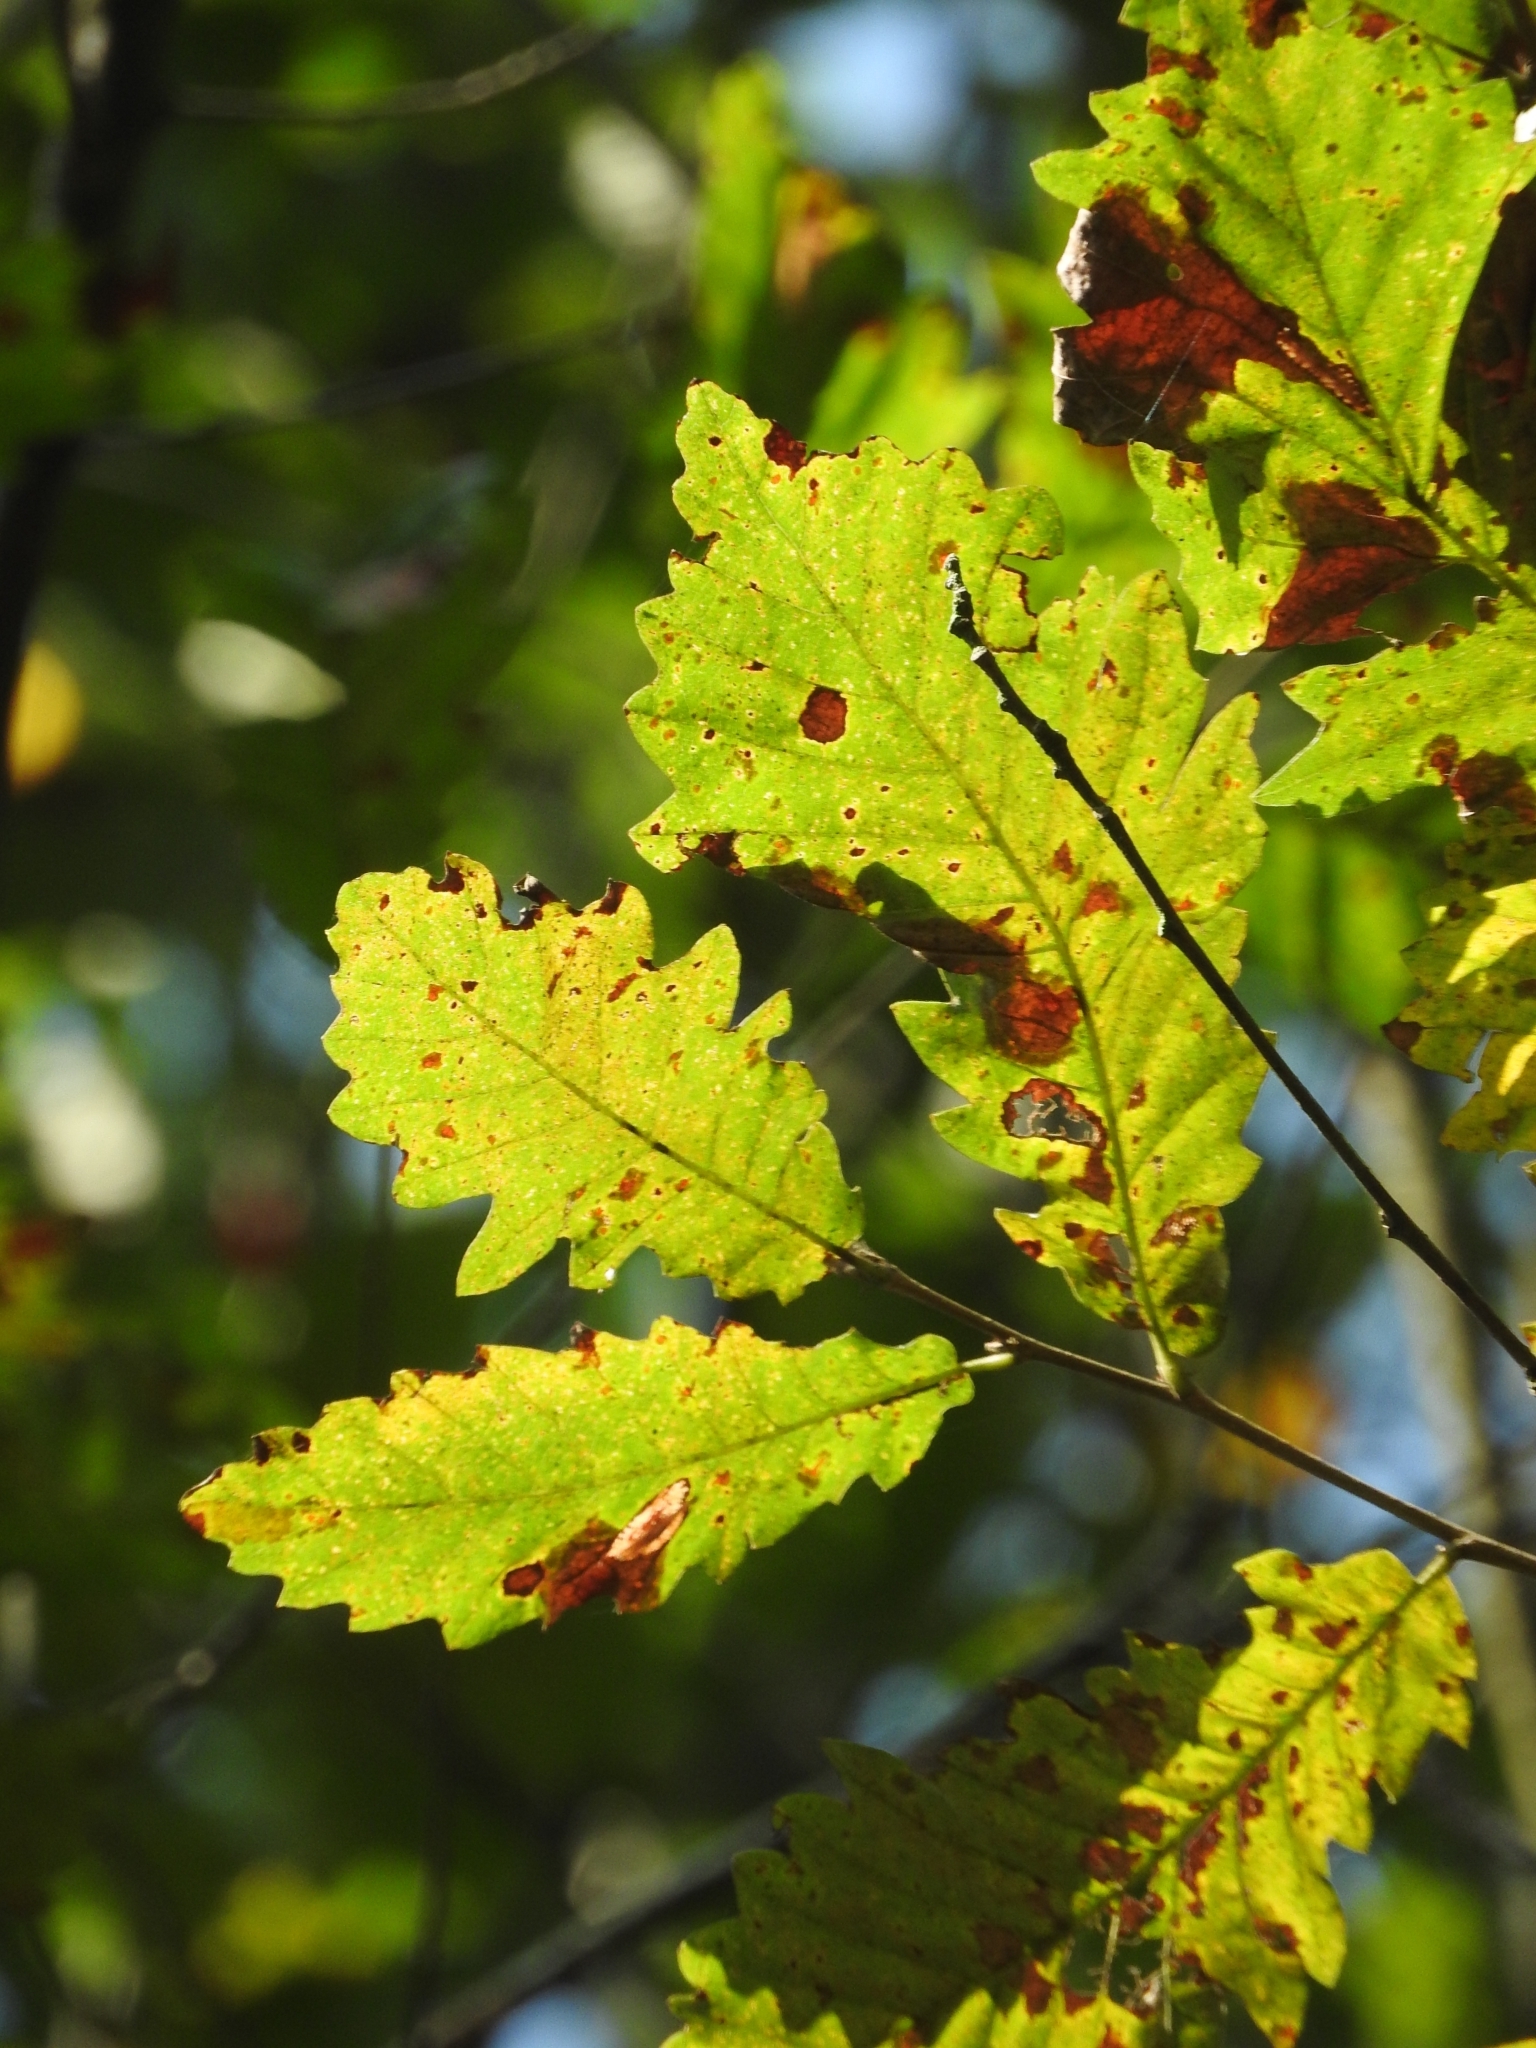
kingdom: Plantae
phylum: Tracheophyta
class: Magnoliopsida
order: Fagales
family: Fagaceae
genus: Quercus
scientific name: Quercus castaneifolia
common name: Chestnut-leaved oak
